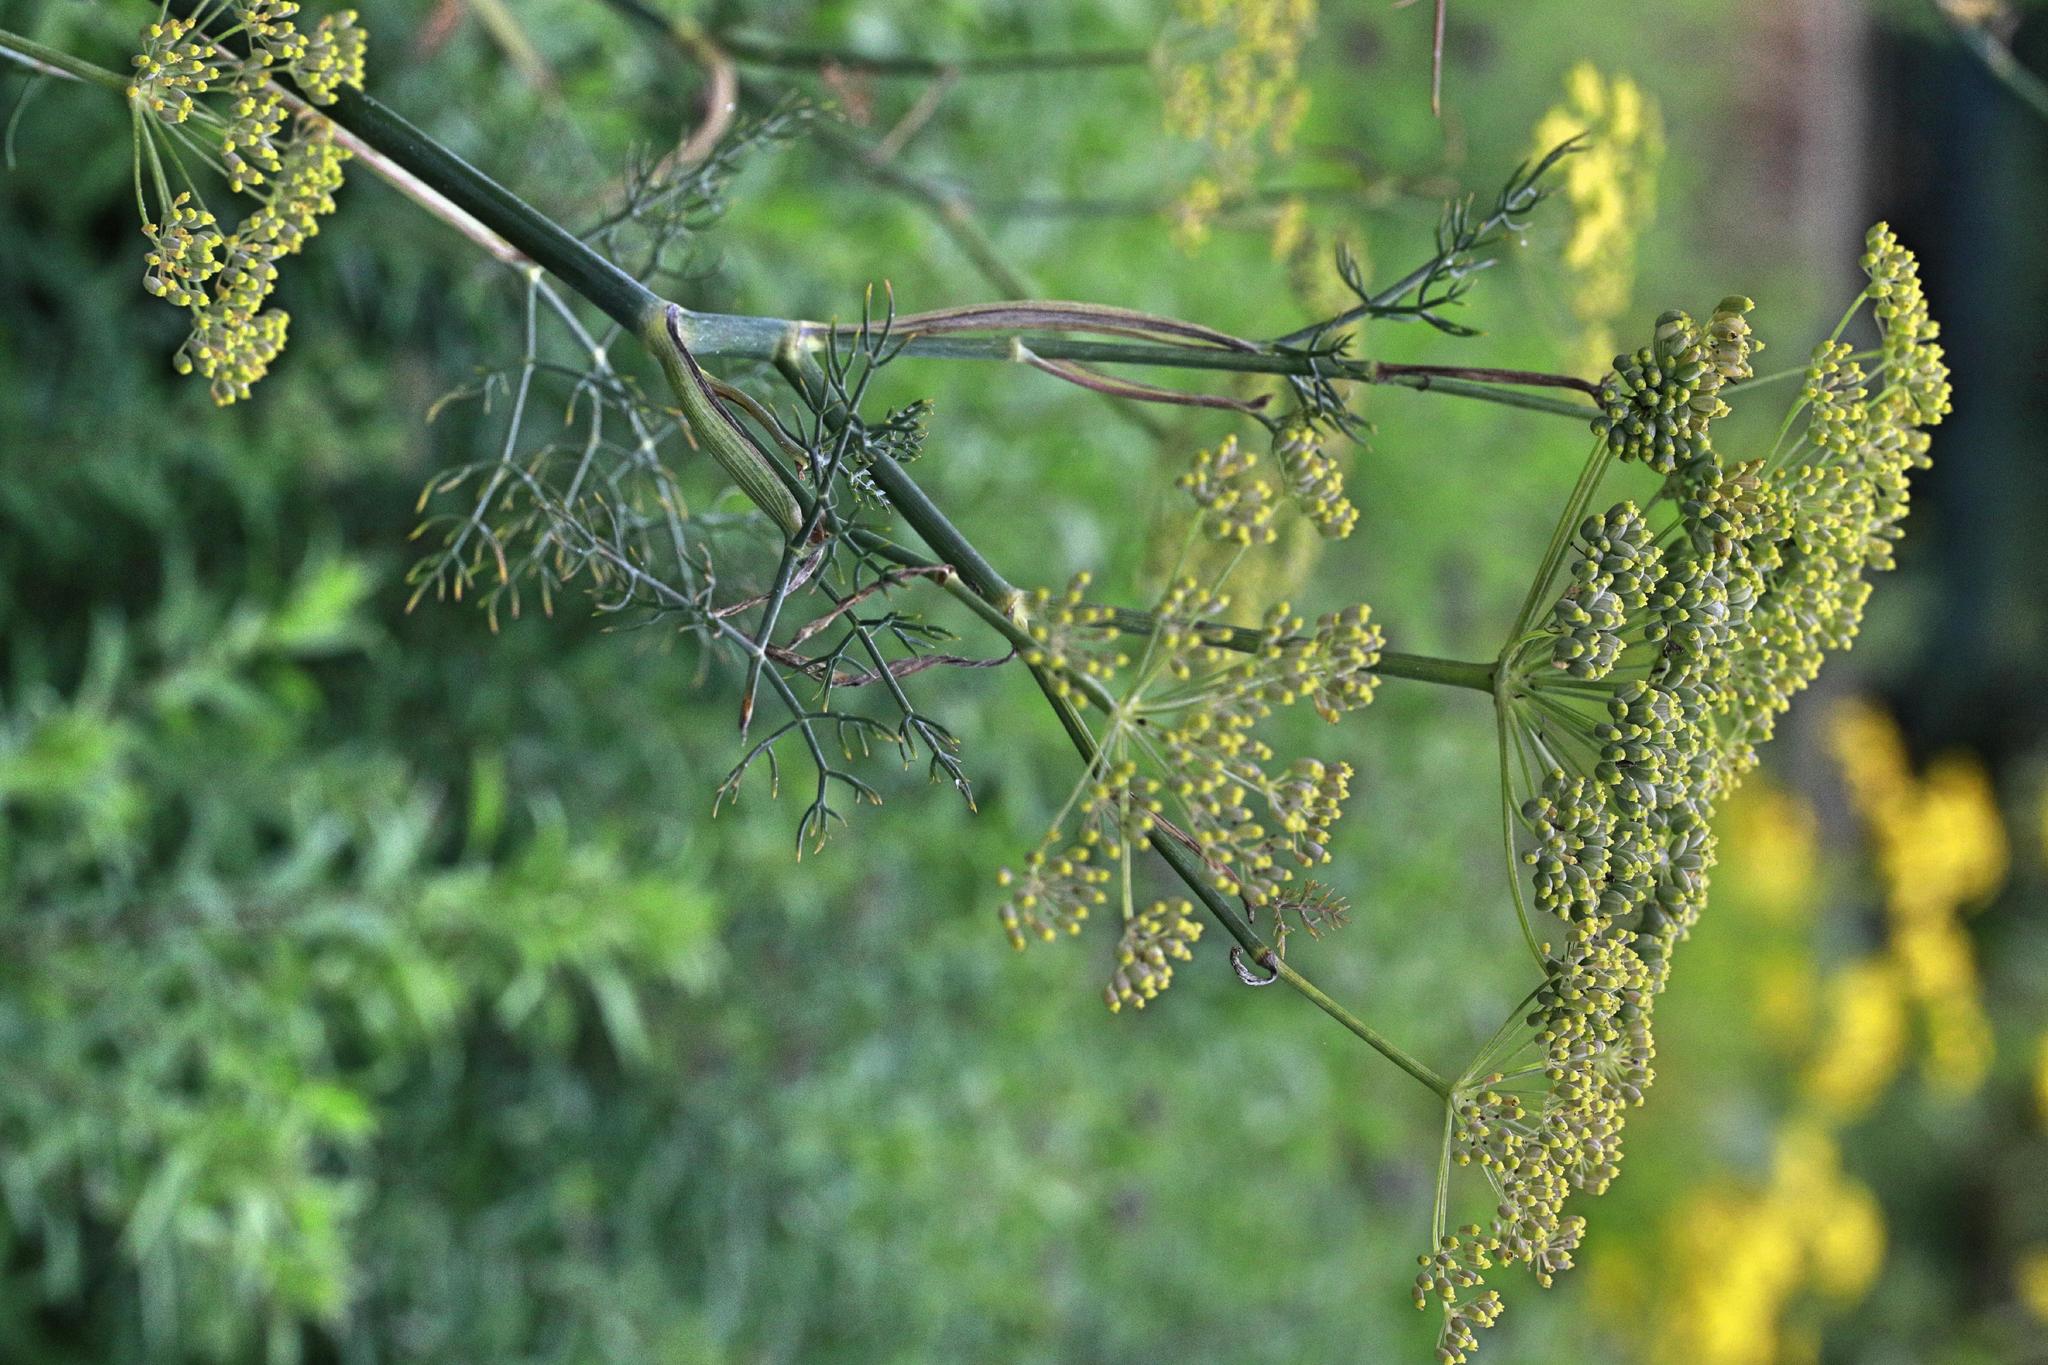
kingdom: Plantae
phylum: Tracheophyta
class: Magnoliopsida
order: Apiales
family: Apiaceae
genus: Foeniculum
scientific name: Foeniculum vulgare
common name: Fennel
